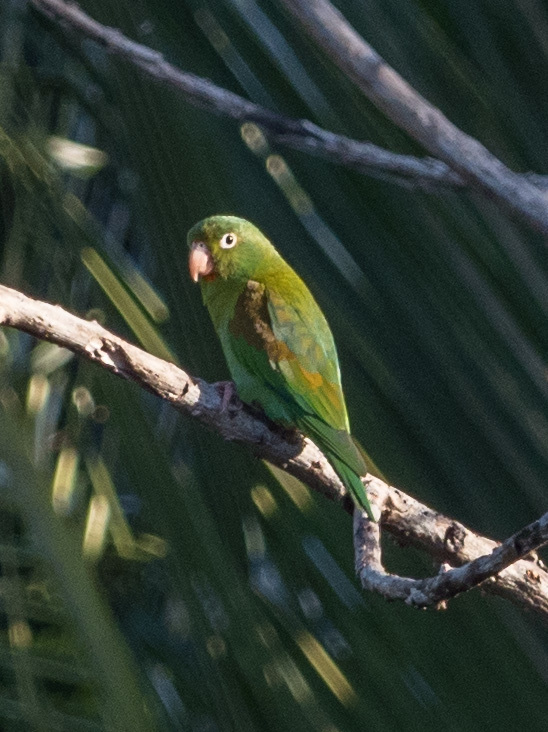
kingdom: Animalia
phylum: Chordata
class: Aves
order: Psittaciformes
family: Psittacidae
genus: Brotogeris
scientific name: Brotogeris jugularis
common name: Orange-chinned parakeet
